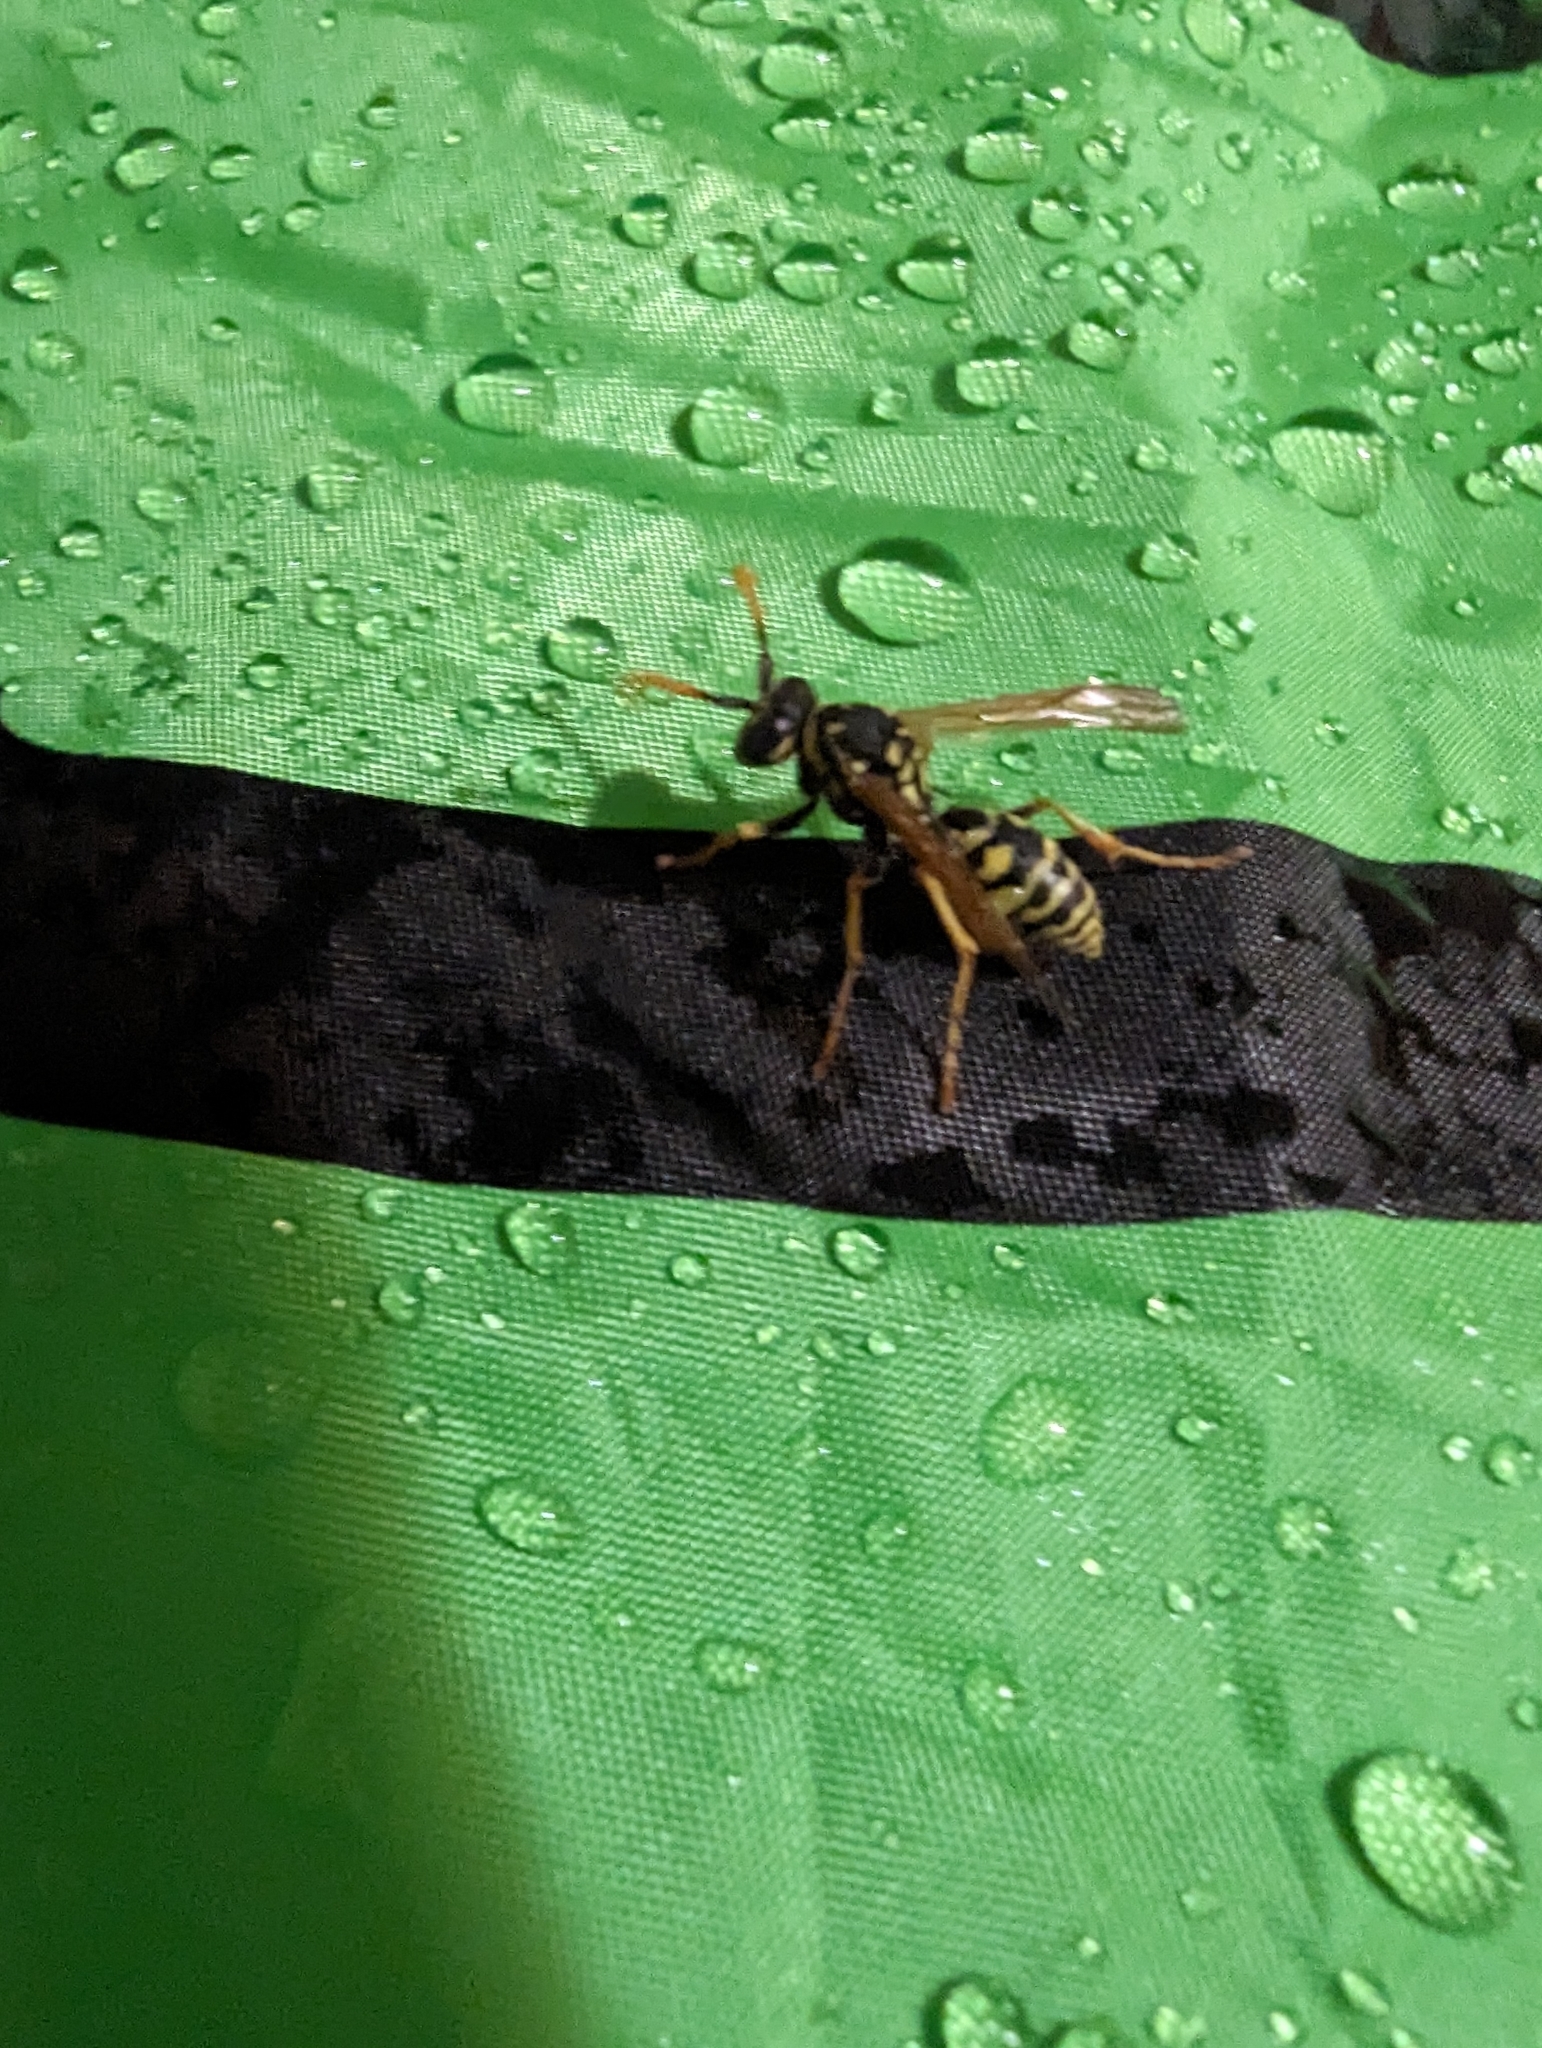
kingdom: Animalia
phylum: Arthropoda
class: Insecta
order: Hymenoptera
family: Eumenidae
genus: Polistes
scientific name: Polistes dominula
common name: Paper wasp
